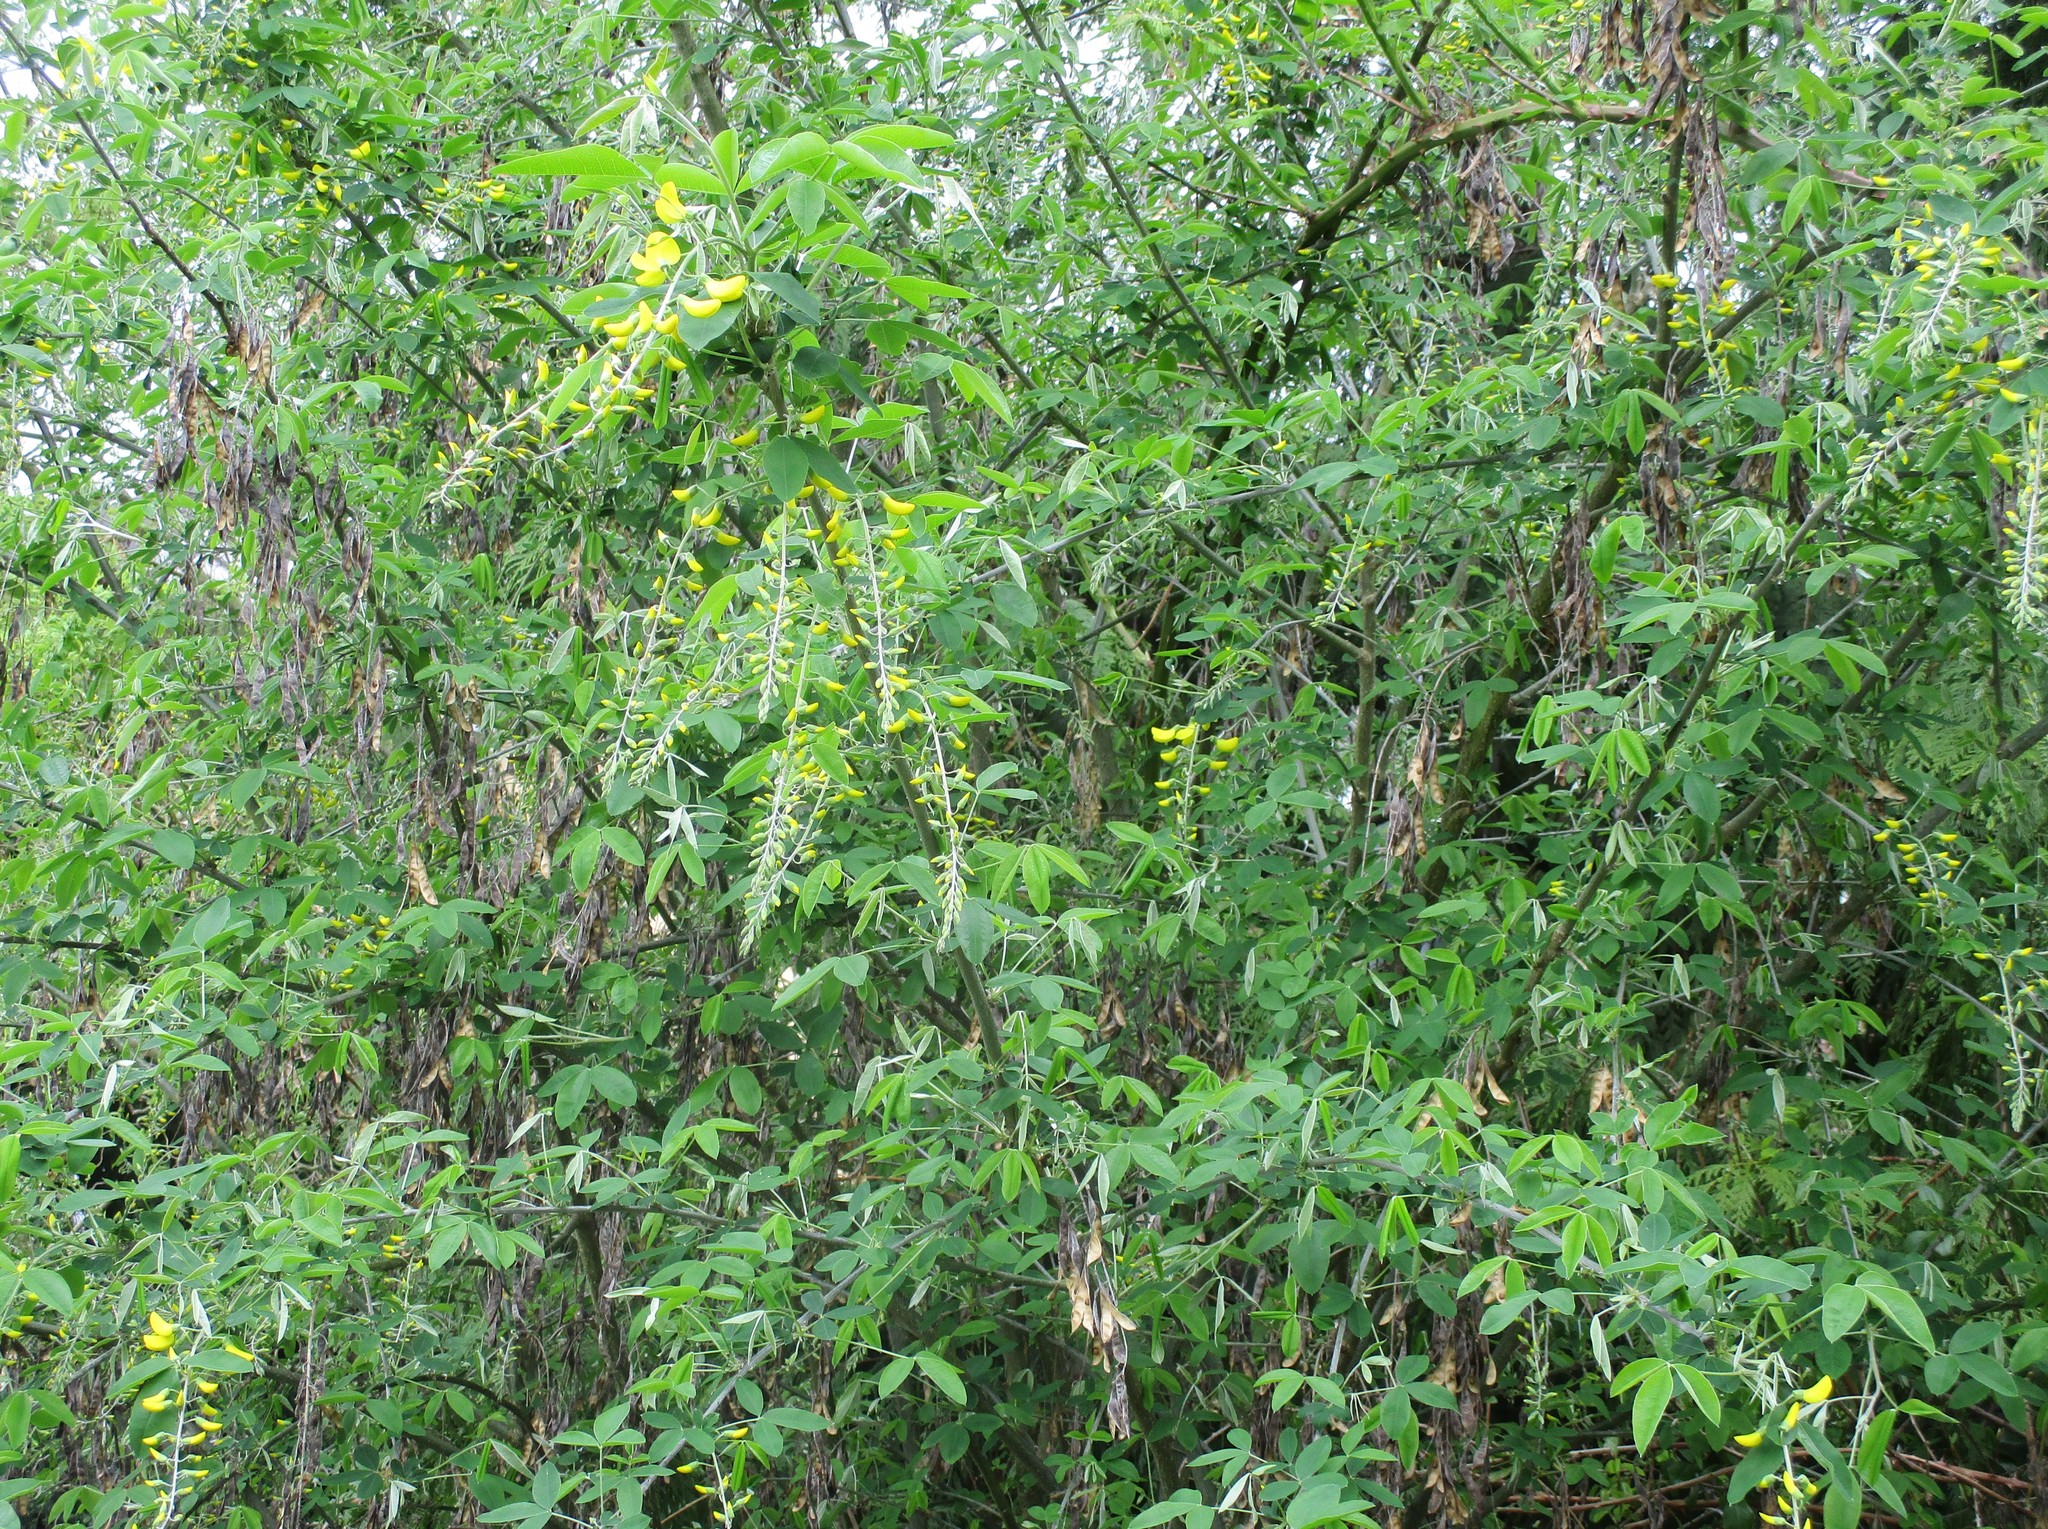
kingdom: Plantae
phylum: Tracheophyta
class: Magnoliopsida
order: Fabales
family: Fabaceae
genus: Laburnum
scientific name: Laburnum anagyroides
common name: Laburnum
